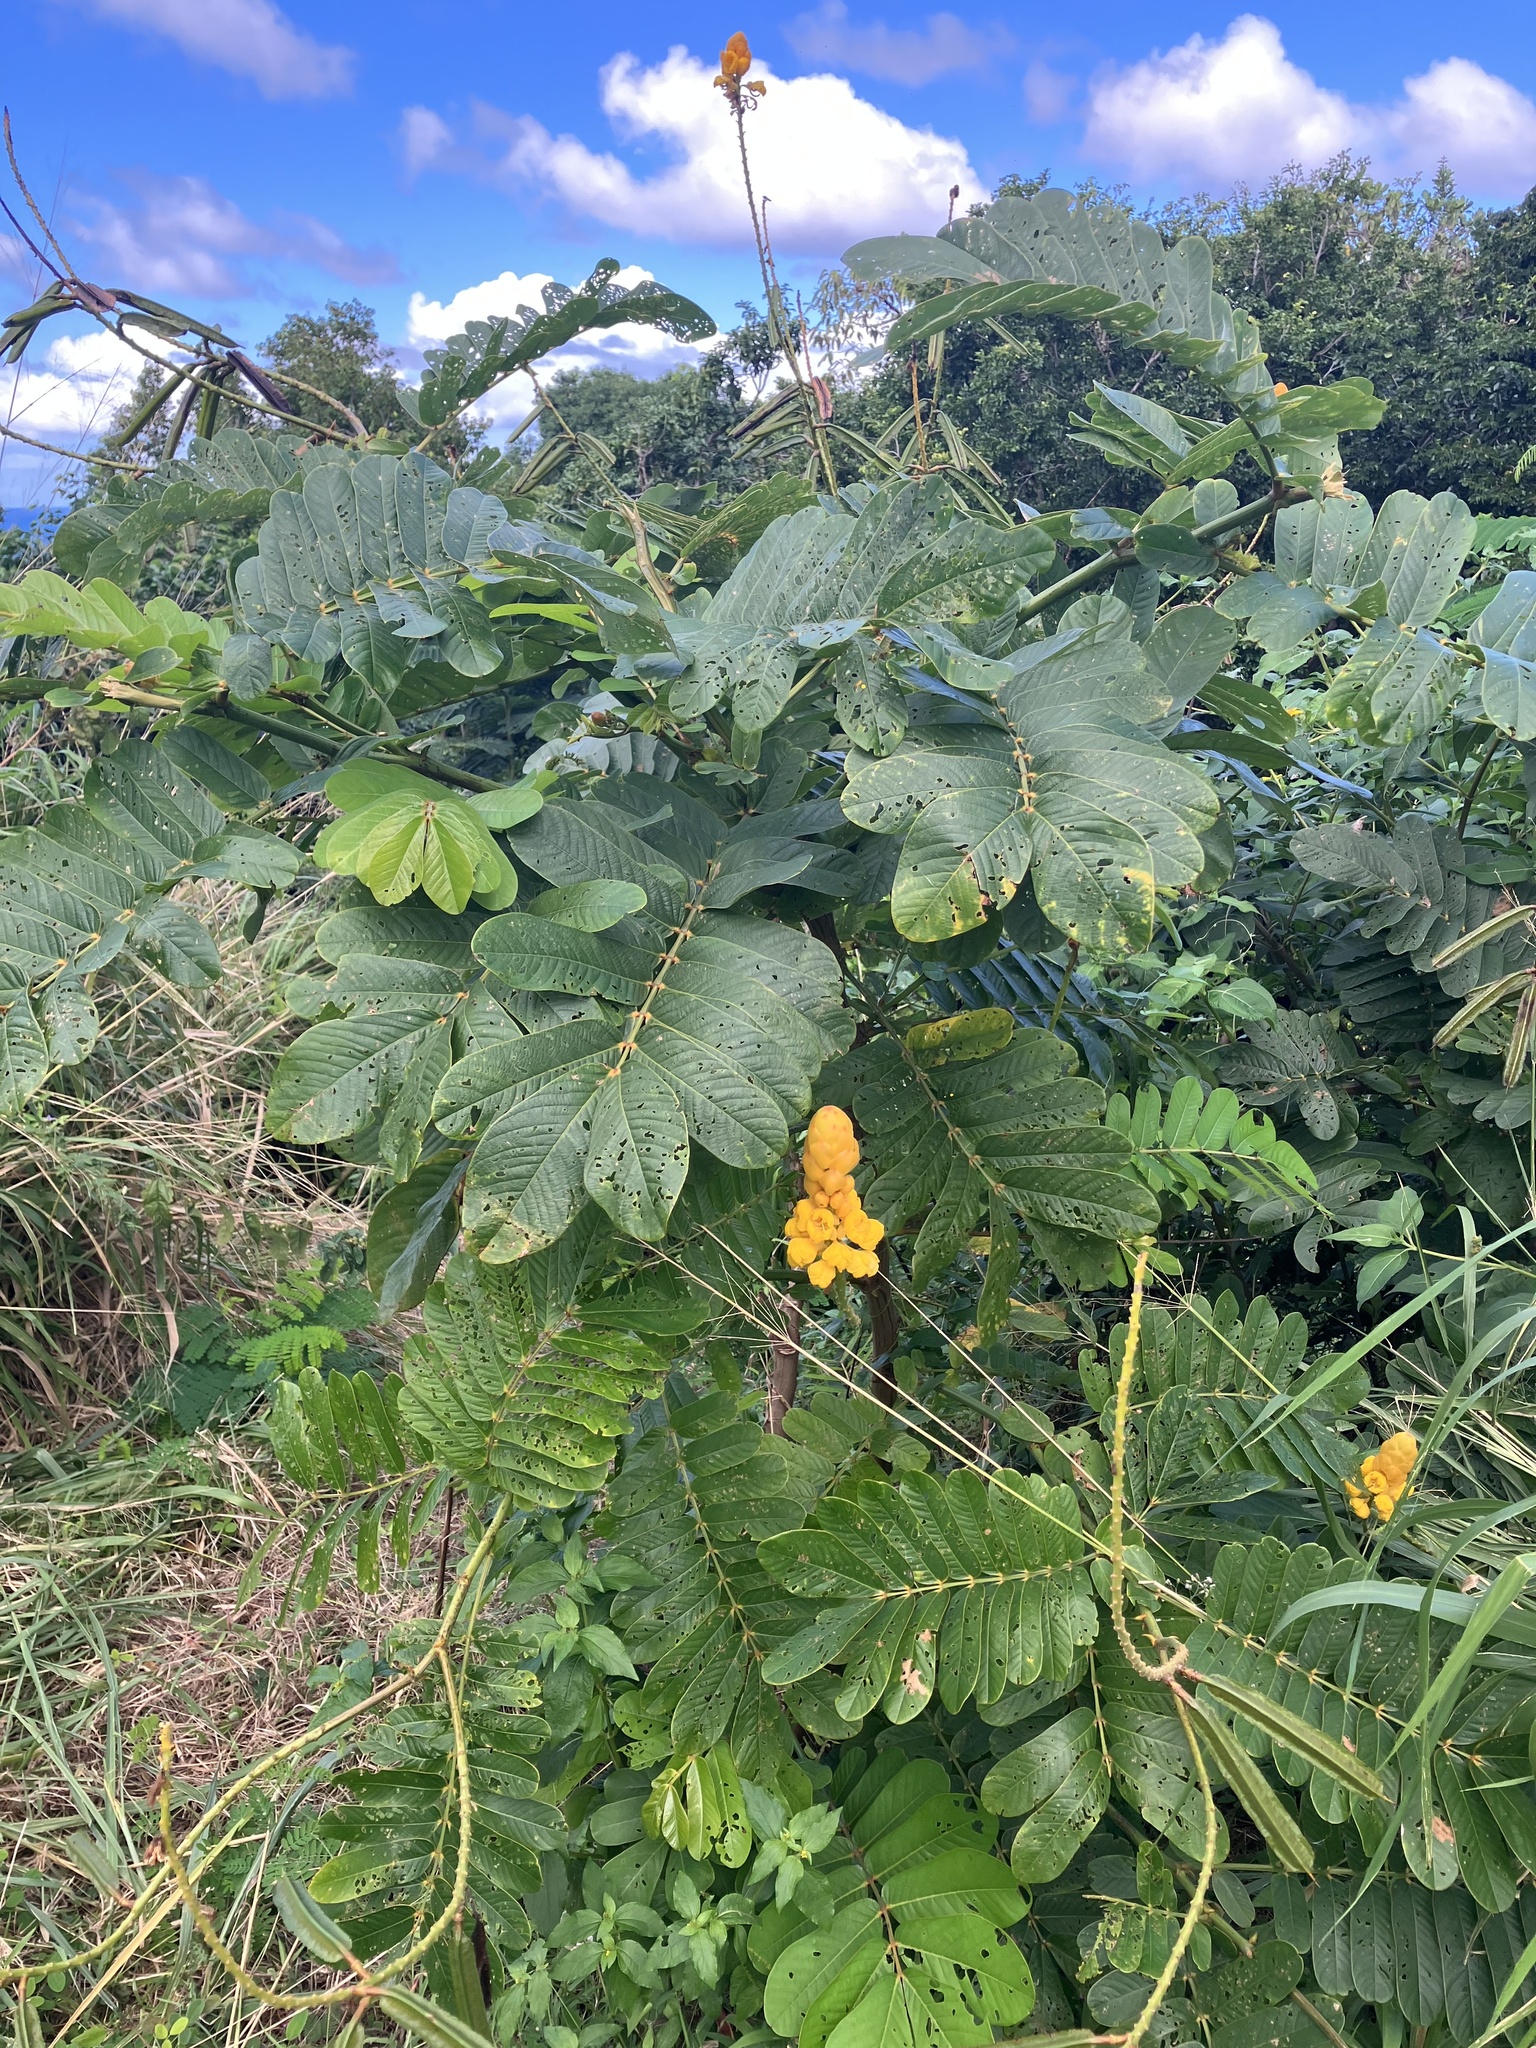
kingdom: Plantae
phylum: Tracheophyta
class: Magnoliopsida
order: Fabales
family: Fabaceae
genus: Senna
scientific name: Senna alata
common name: Emperor's candlesticks
